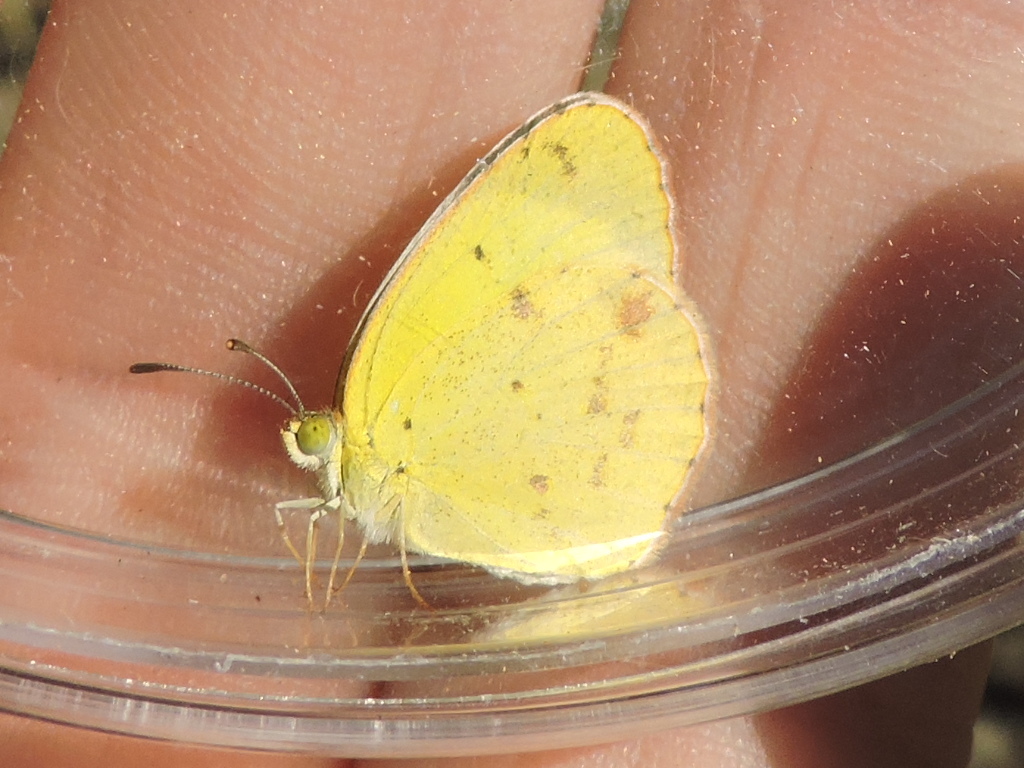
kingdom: Animalia
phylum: Arthropoda
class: Insecta
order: Lepidoptera
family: Pieridae
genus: Pyrisitia
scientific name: Pyrisitia lisa
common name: Little yellow
